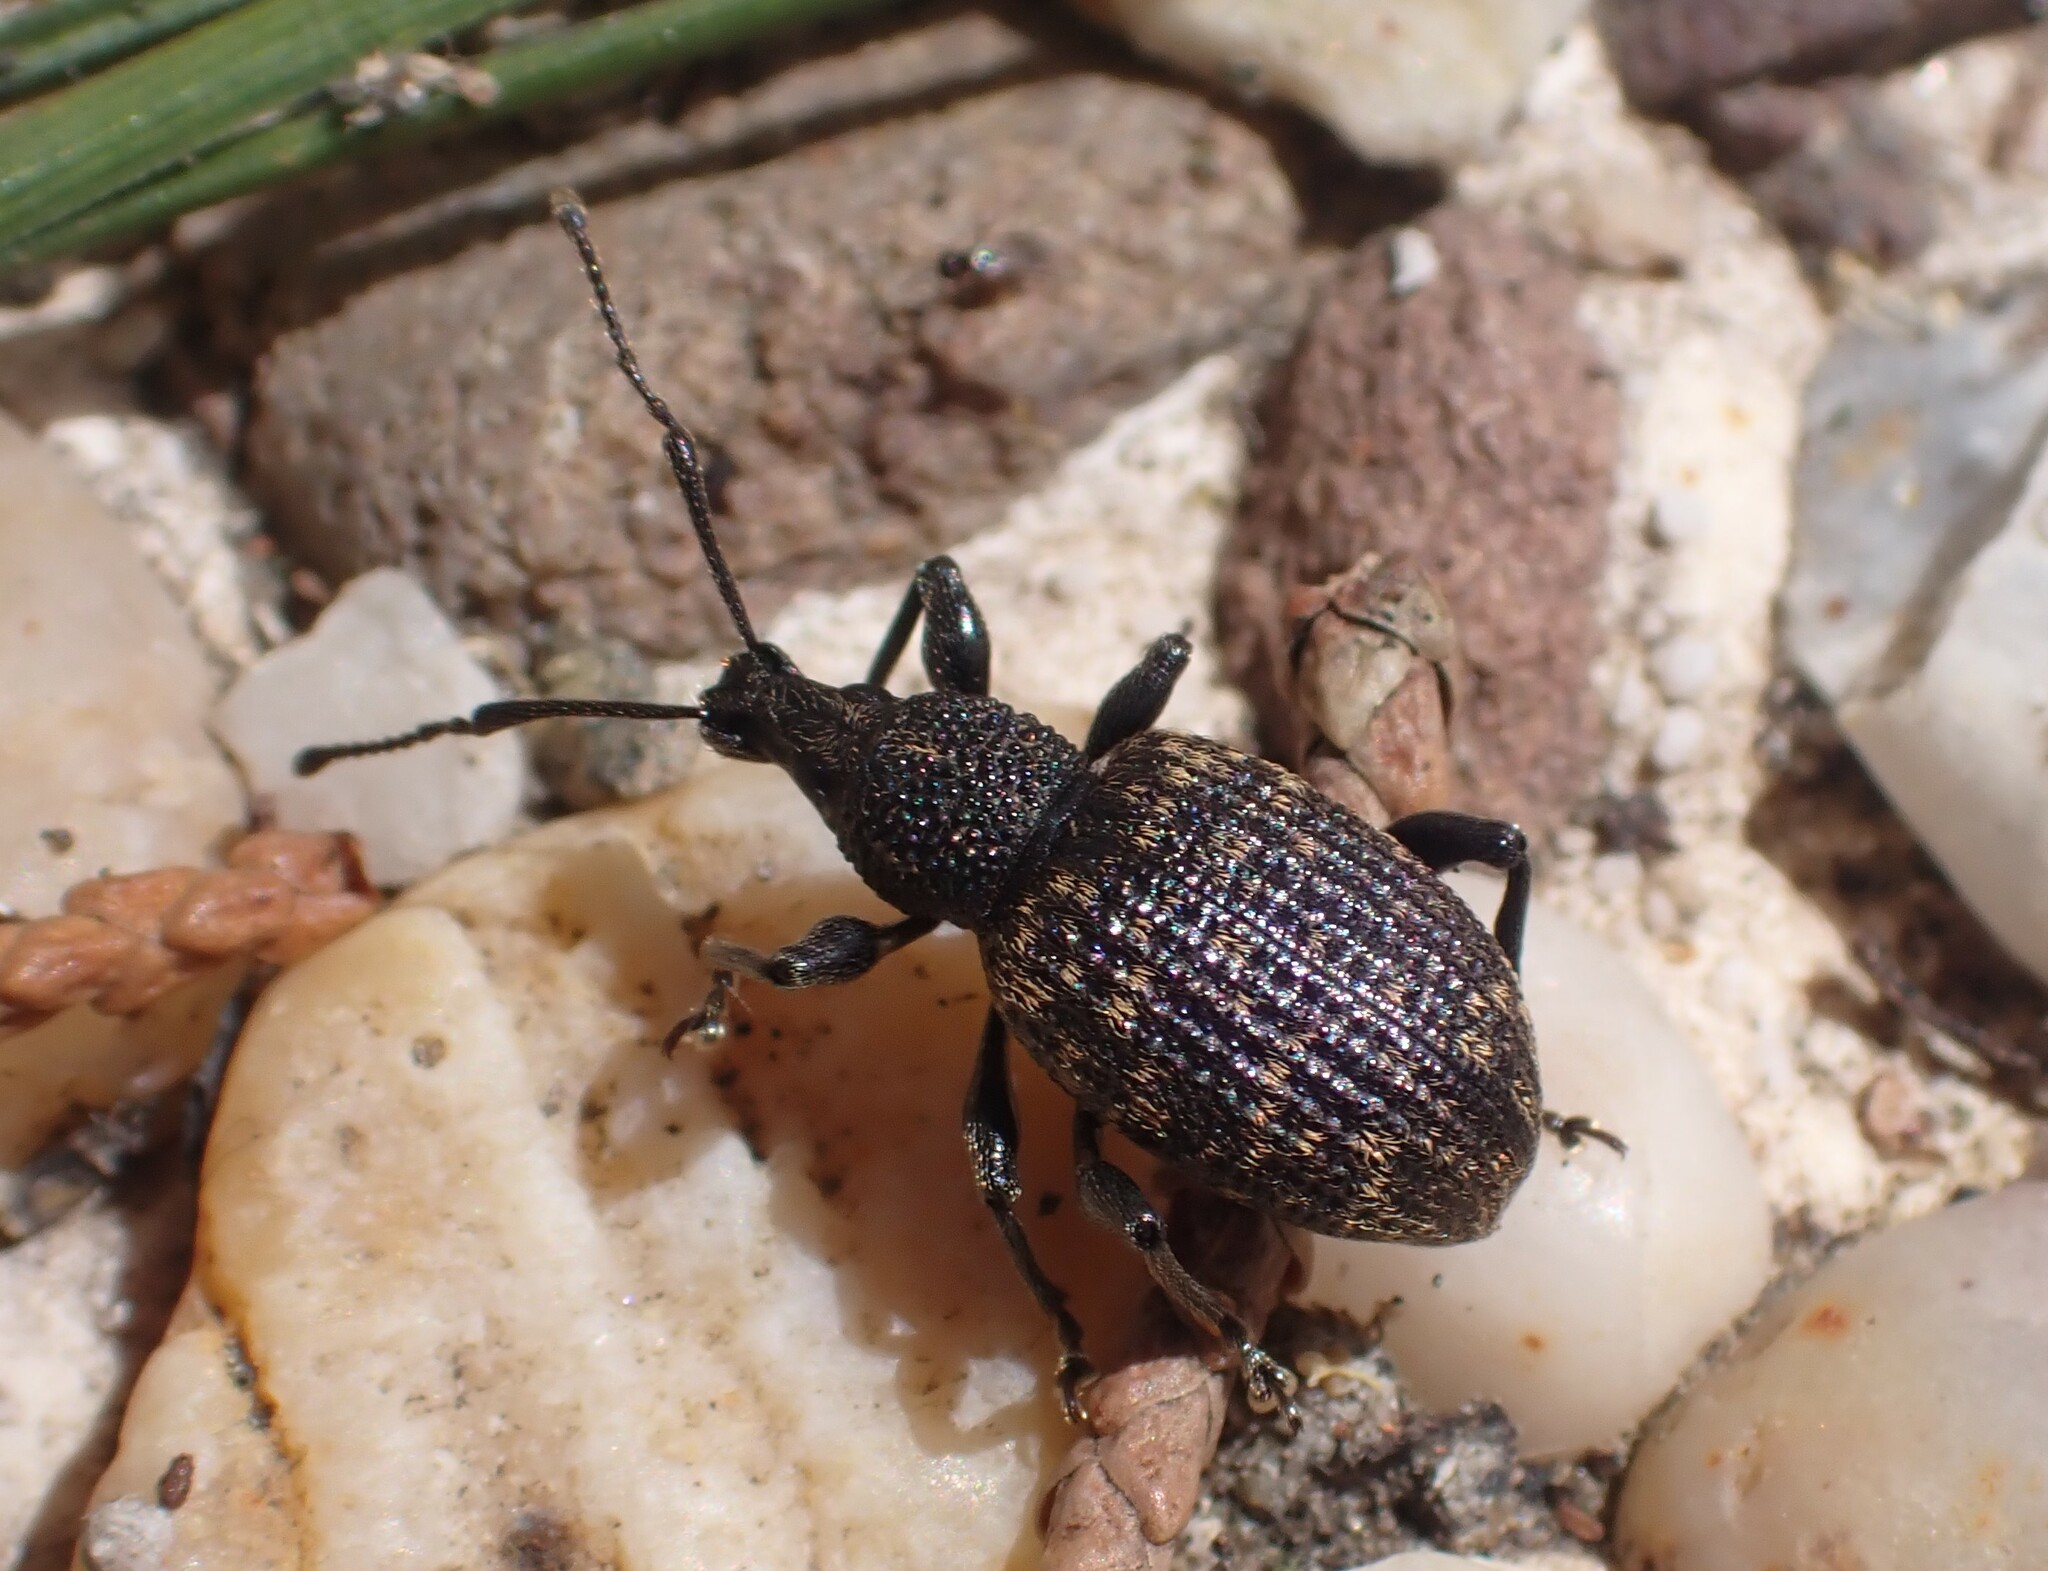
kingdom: Animalia
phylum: Arthropoda
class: Insecta
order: Coleoptera
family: Curculionidae
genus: Otiorhynchus
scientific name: Otiorhynchus sulcatus
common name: Black vine weevil
